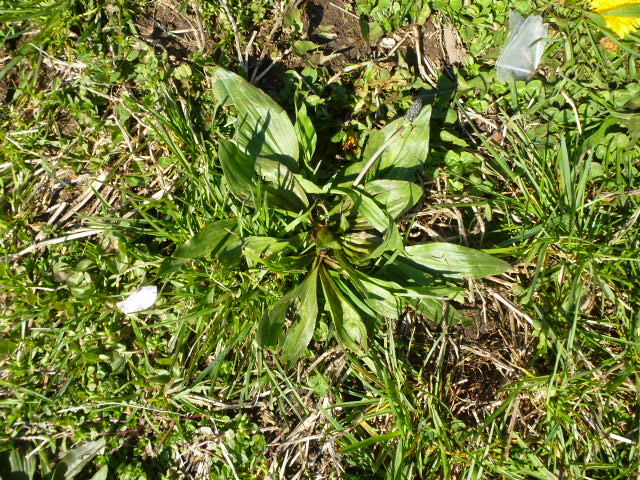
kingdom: Plantae
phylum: Tracheophyta
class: Magnoliopsida
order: Lamiales
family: Plantaginaceae
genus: Plantago
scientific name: Plantago rugelii
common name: American plantain
